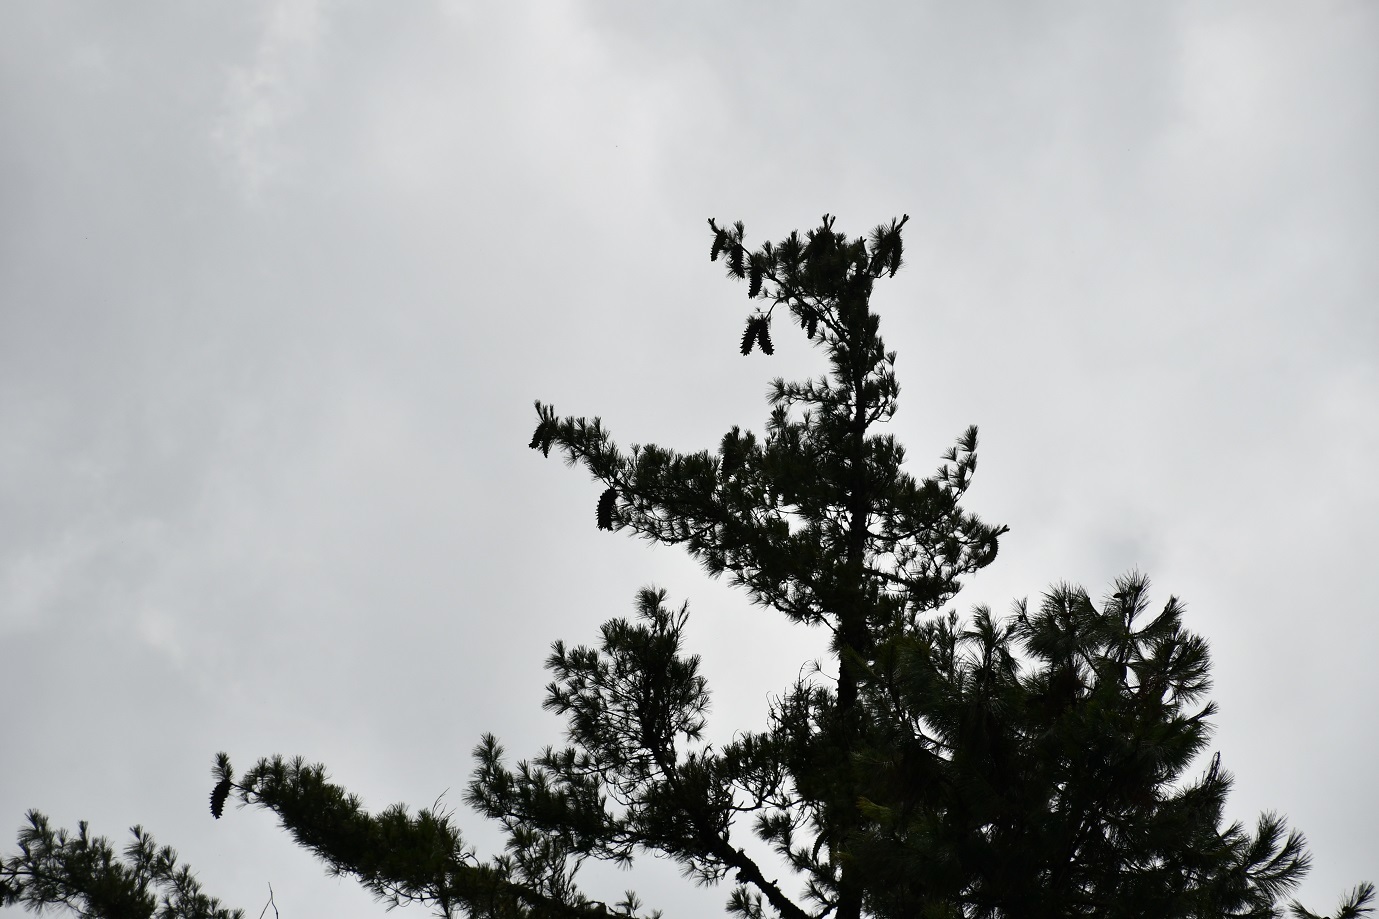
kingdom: Plantae
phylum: Tracheophyta
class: Pinopsida
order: Pinales
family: Pinaceae
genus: Pinus
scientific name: Pinus ayacahuite
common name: Mexican white pine
